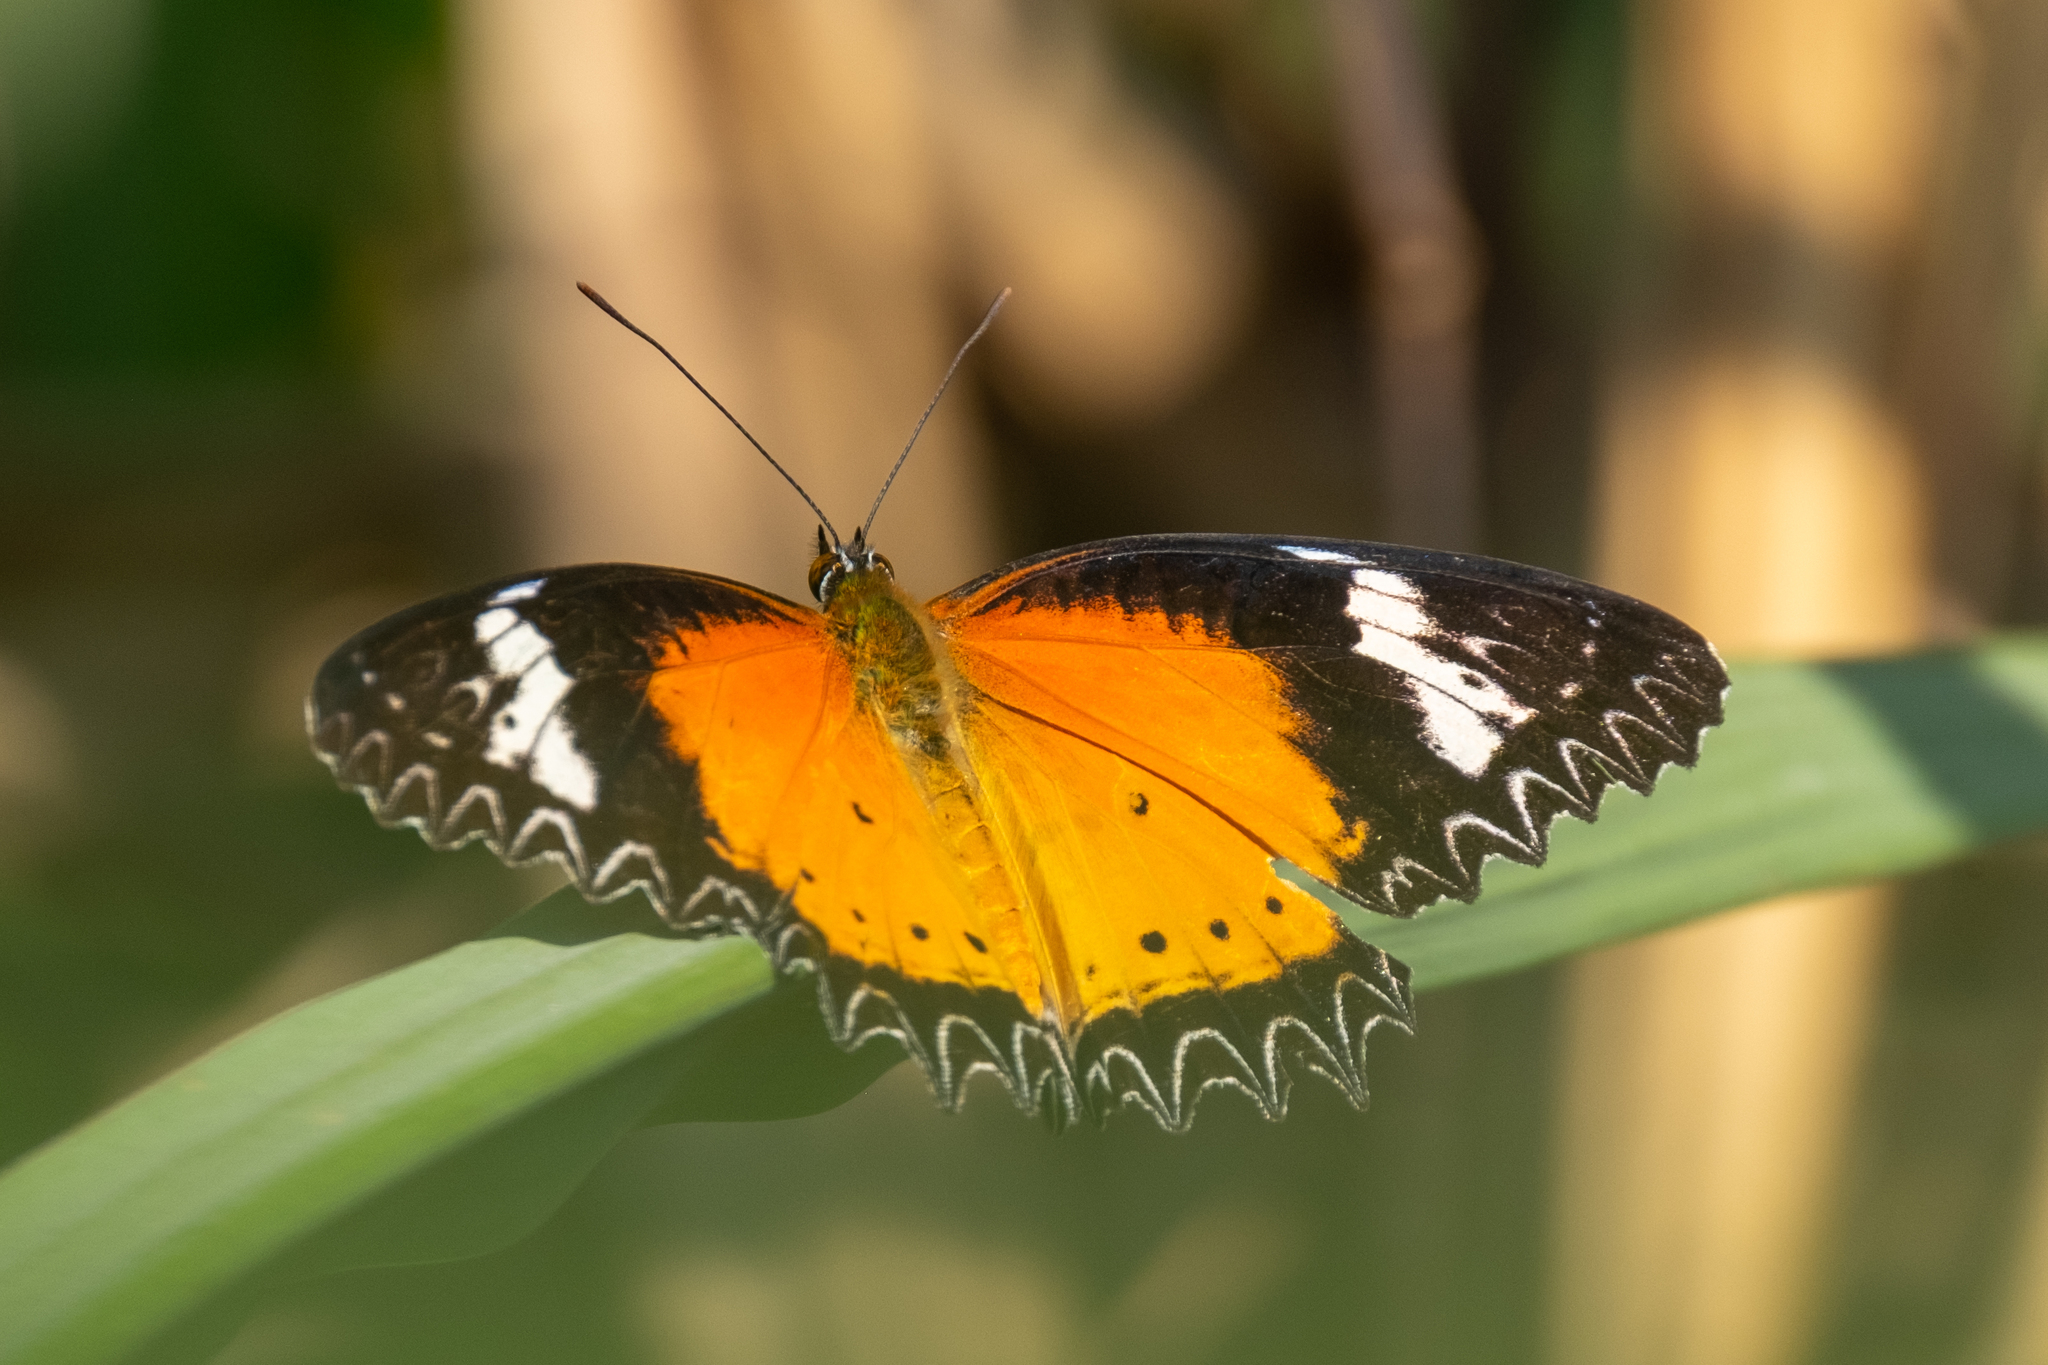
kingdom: Animalia
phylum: Arthropoda
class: Insecta
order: Lepidoptera
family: Nymphalidae
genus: Cethosia
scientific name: Cethosia cyane
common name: Leopard lacewing butterfly
